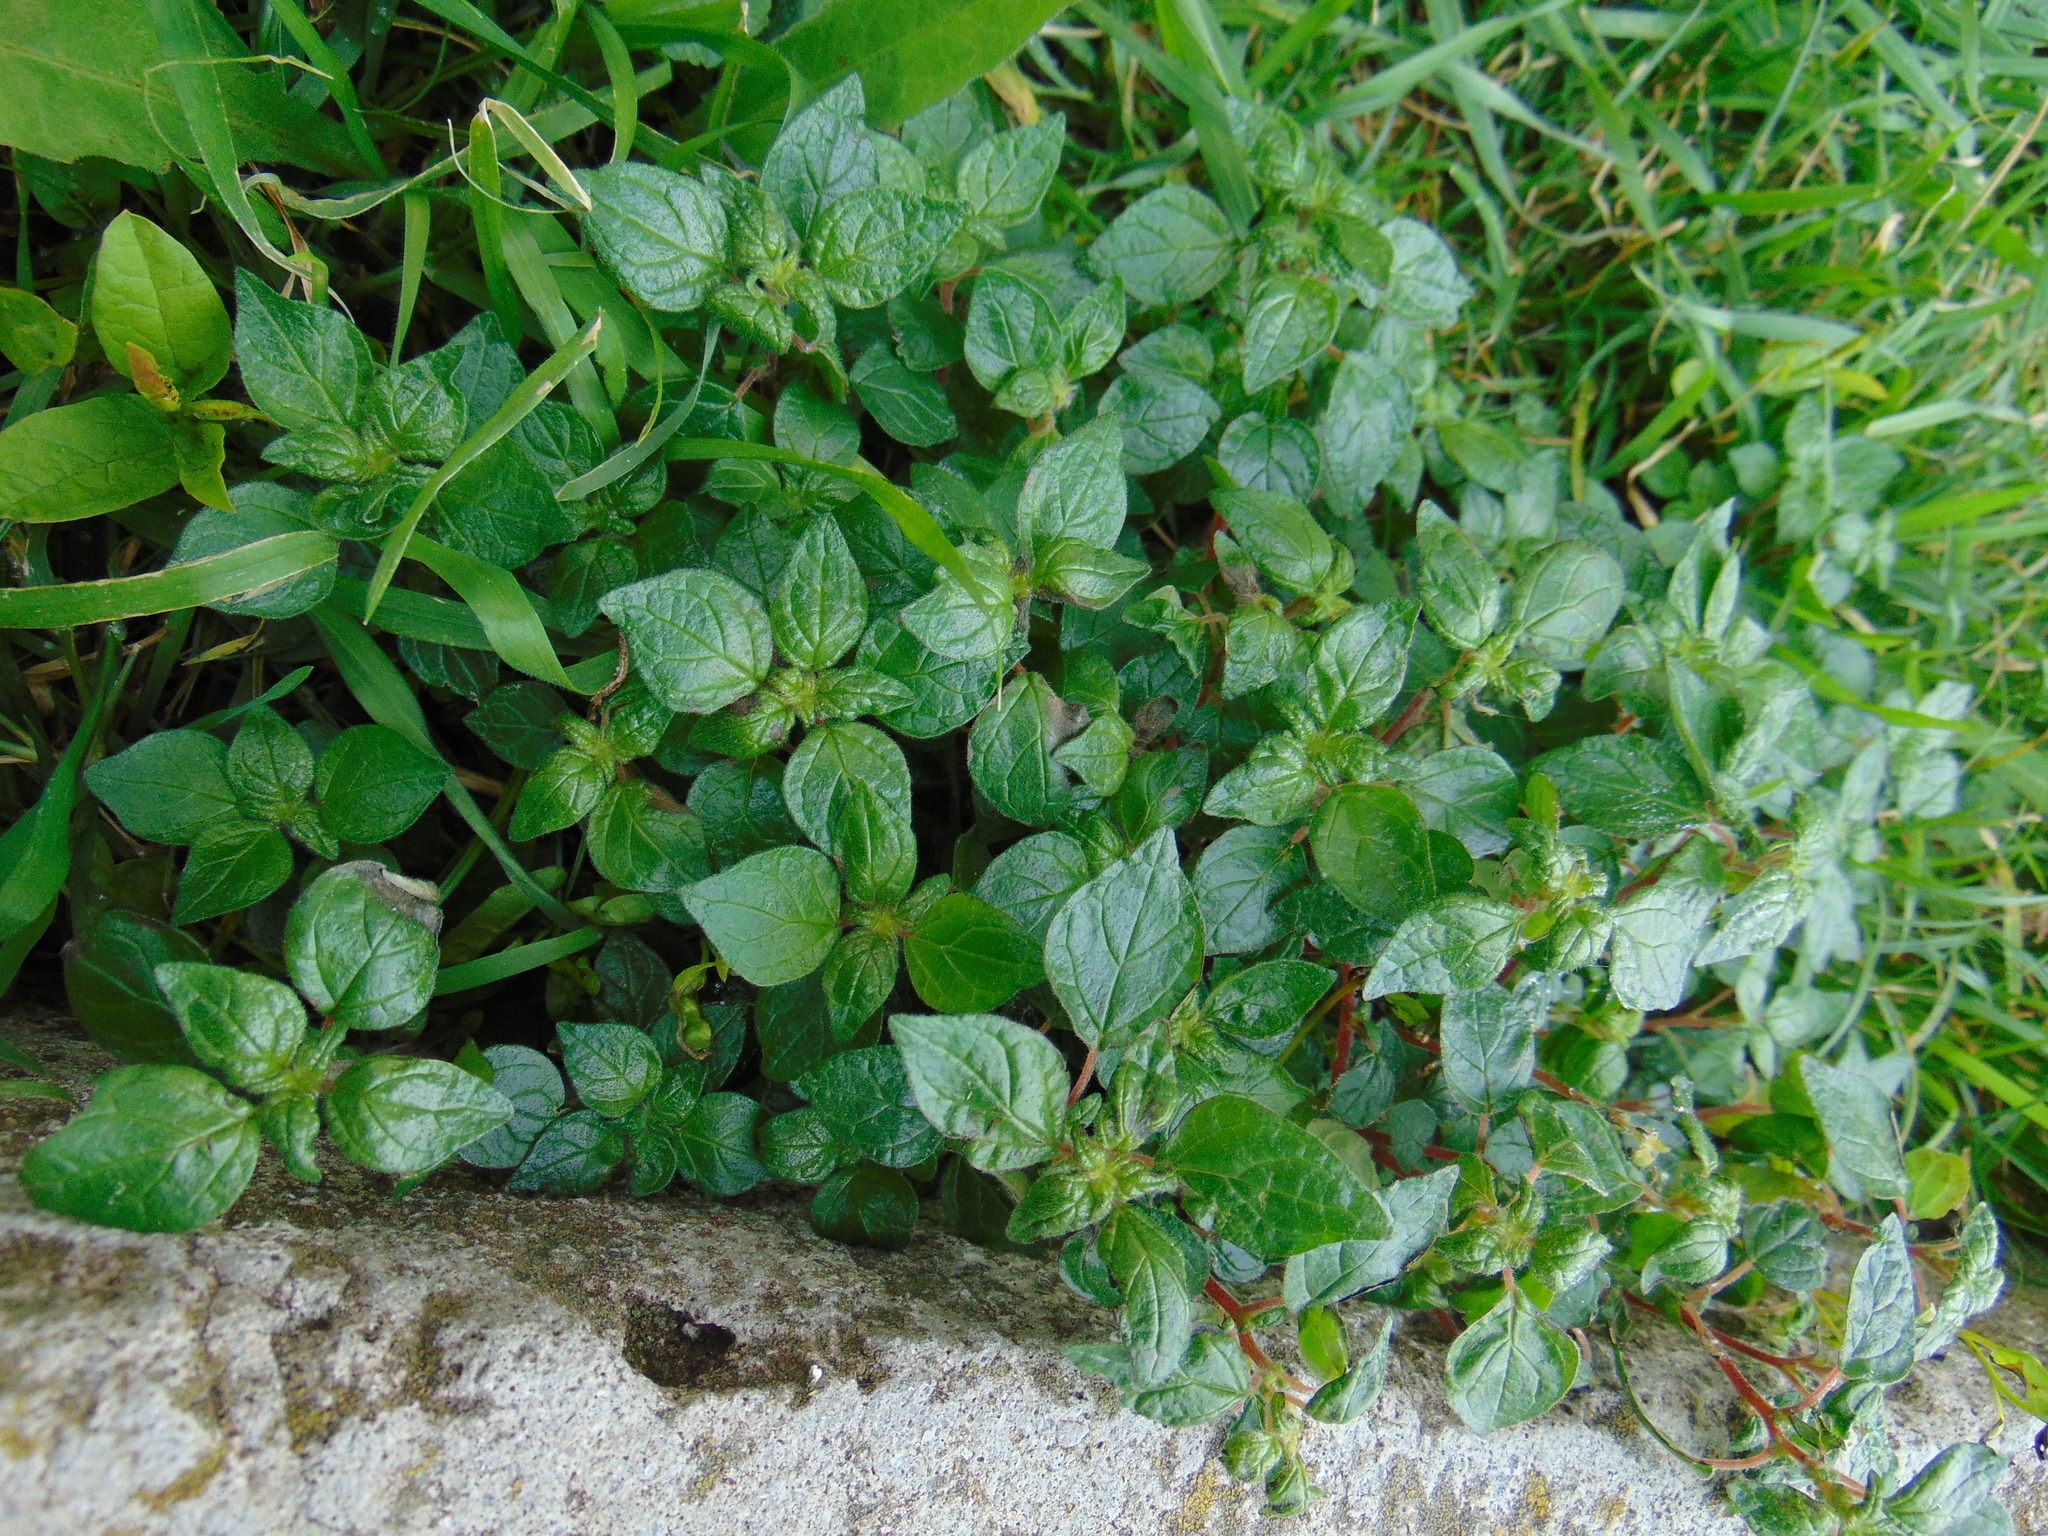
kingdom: Plantae
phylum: Tracheophyta
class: Magnoliopsida
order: Rosales
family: Urticaceae
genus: Parietaria
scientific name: Parietaria judaica
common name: Pellitory-of-the-wall
